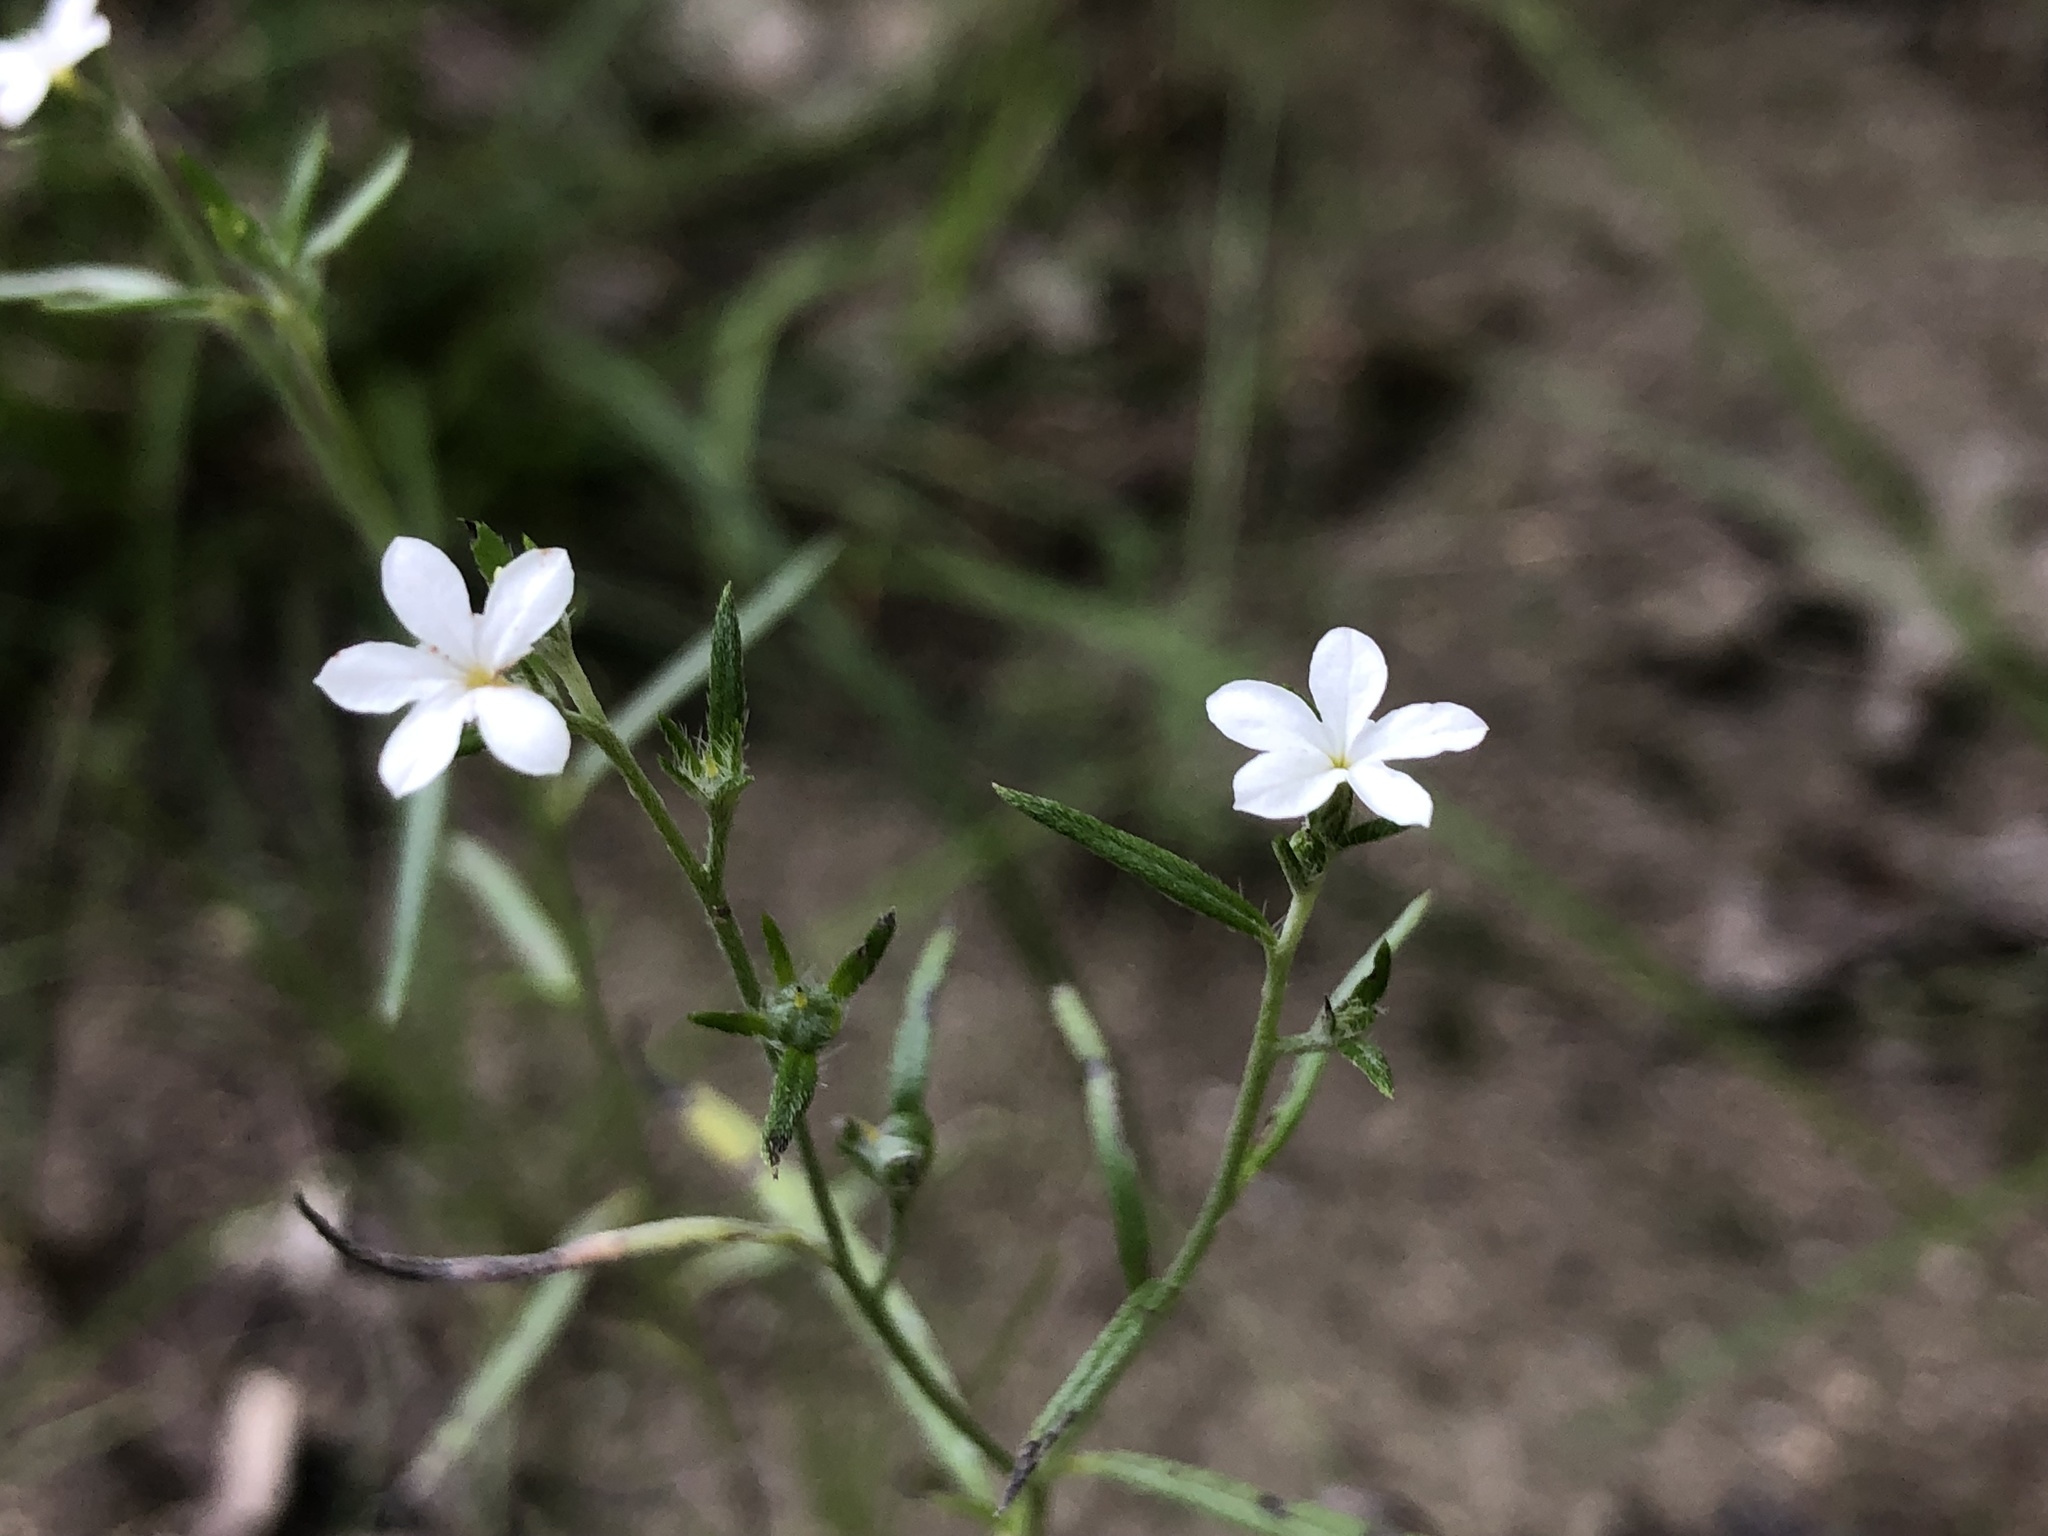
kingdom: Plantae
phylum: Tracheophyta
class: Magnoliopsida
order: Boraginales
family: Heliotropiaceae
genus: Euploca
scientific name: Euploca tenella
